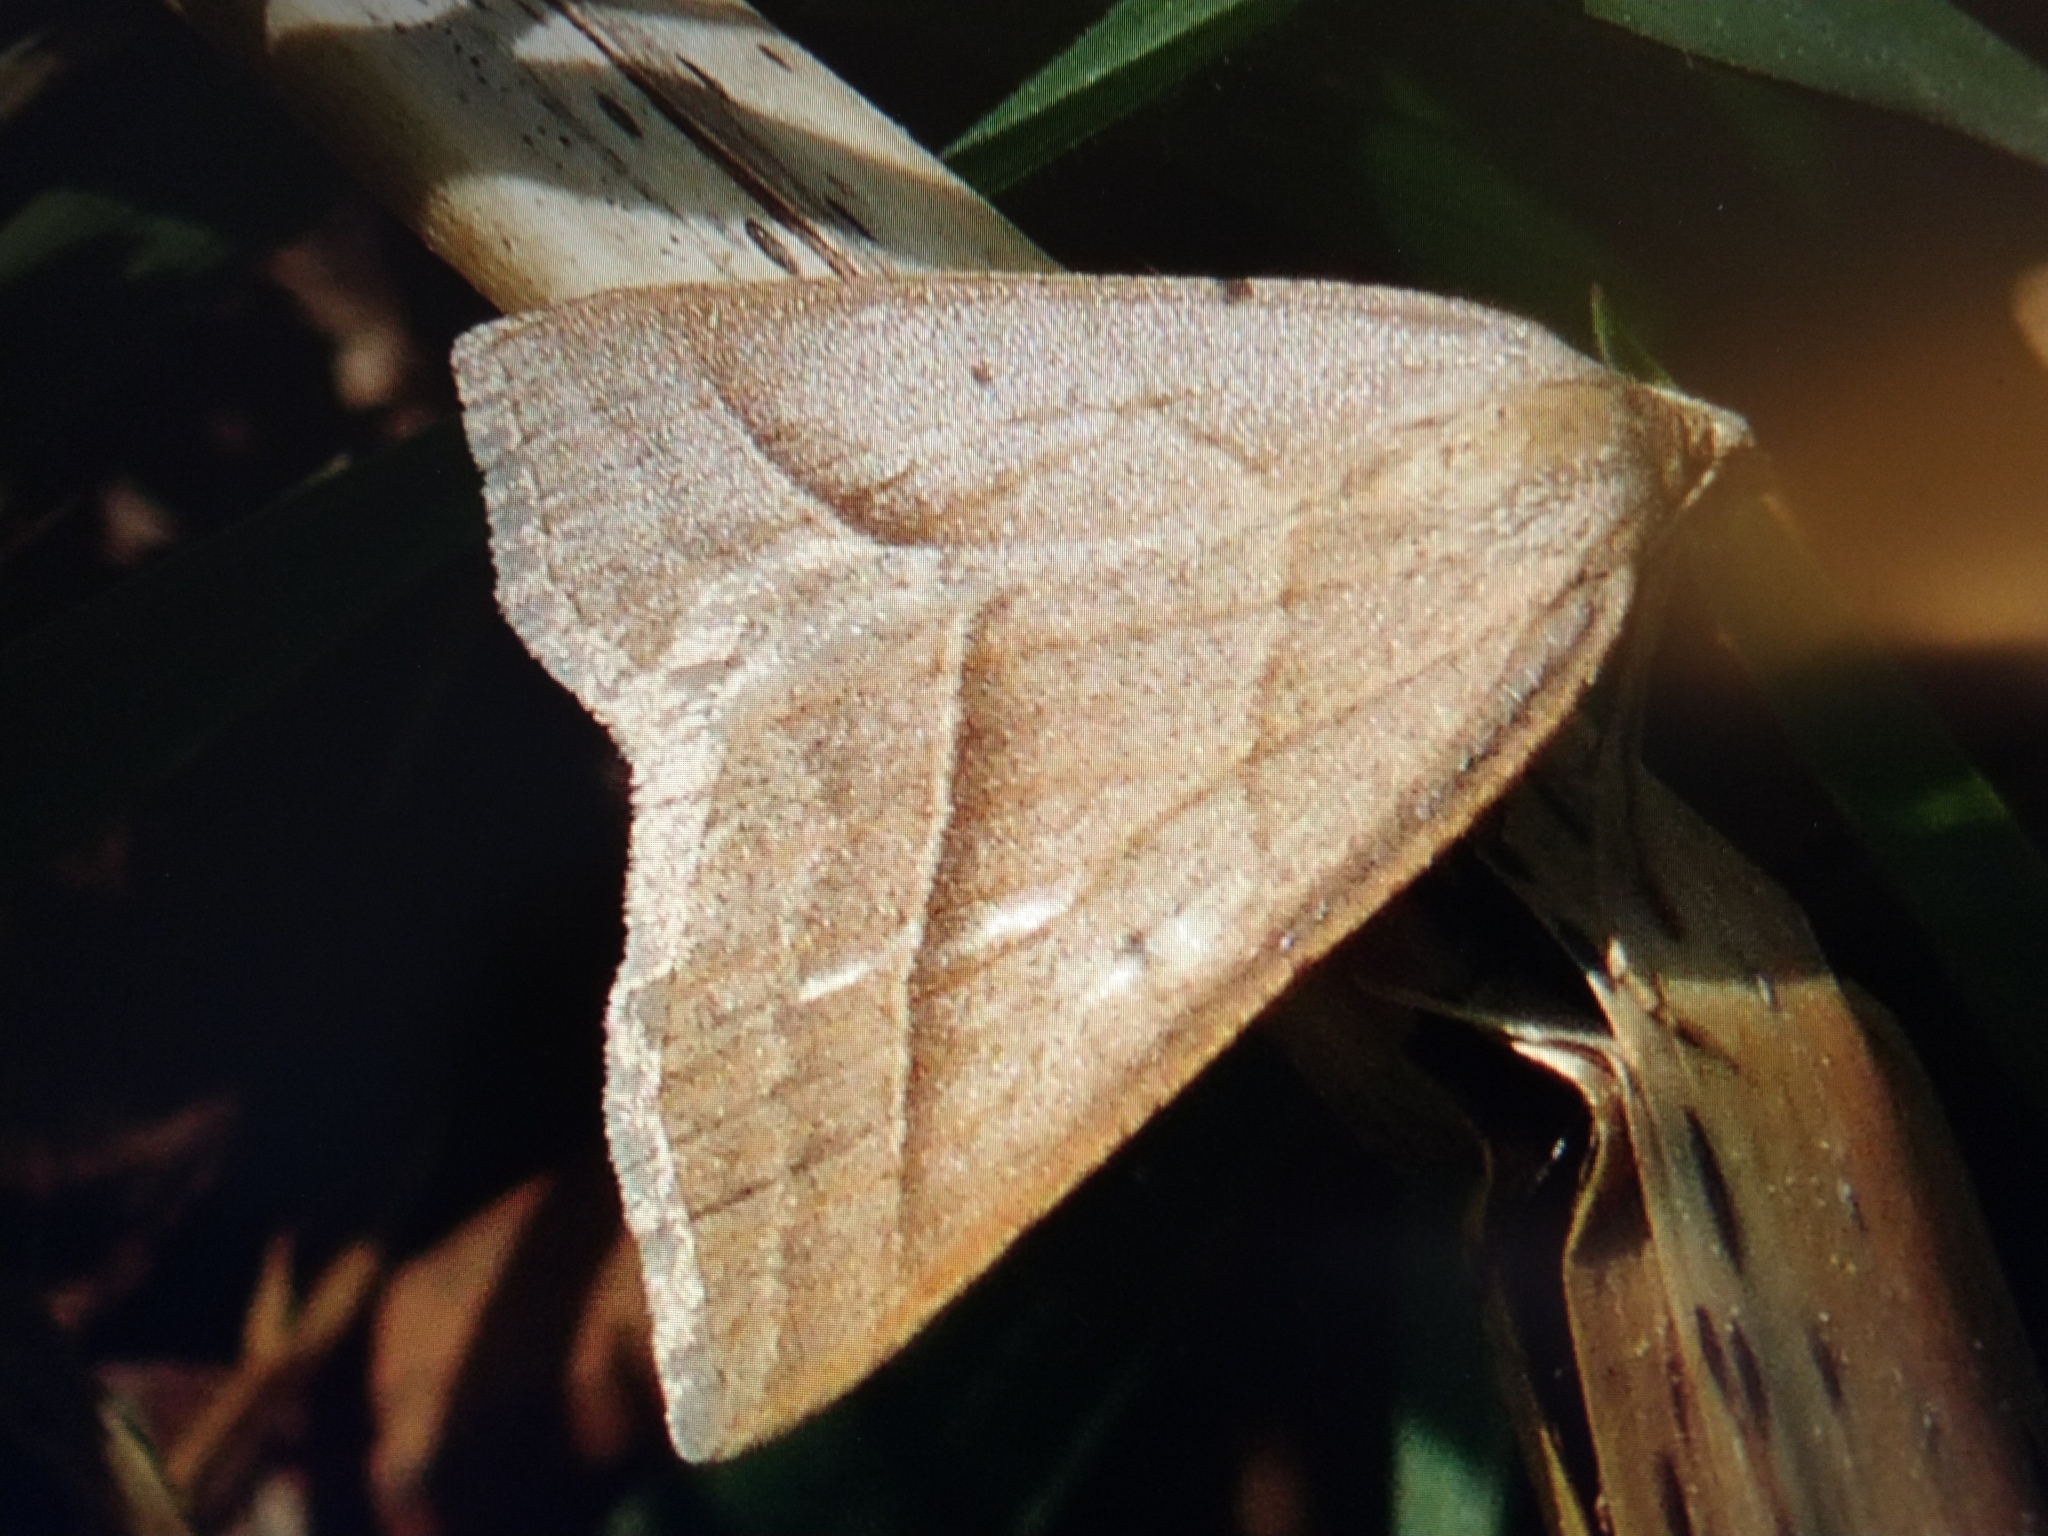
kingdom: Animalia
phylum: Arthropoda
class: Insecta
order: Lepidoptera
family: Pterophoridae
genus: Pterophorus
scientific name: Pterophorus Petrophora chlorosata
